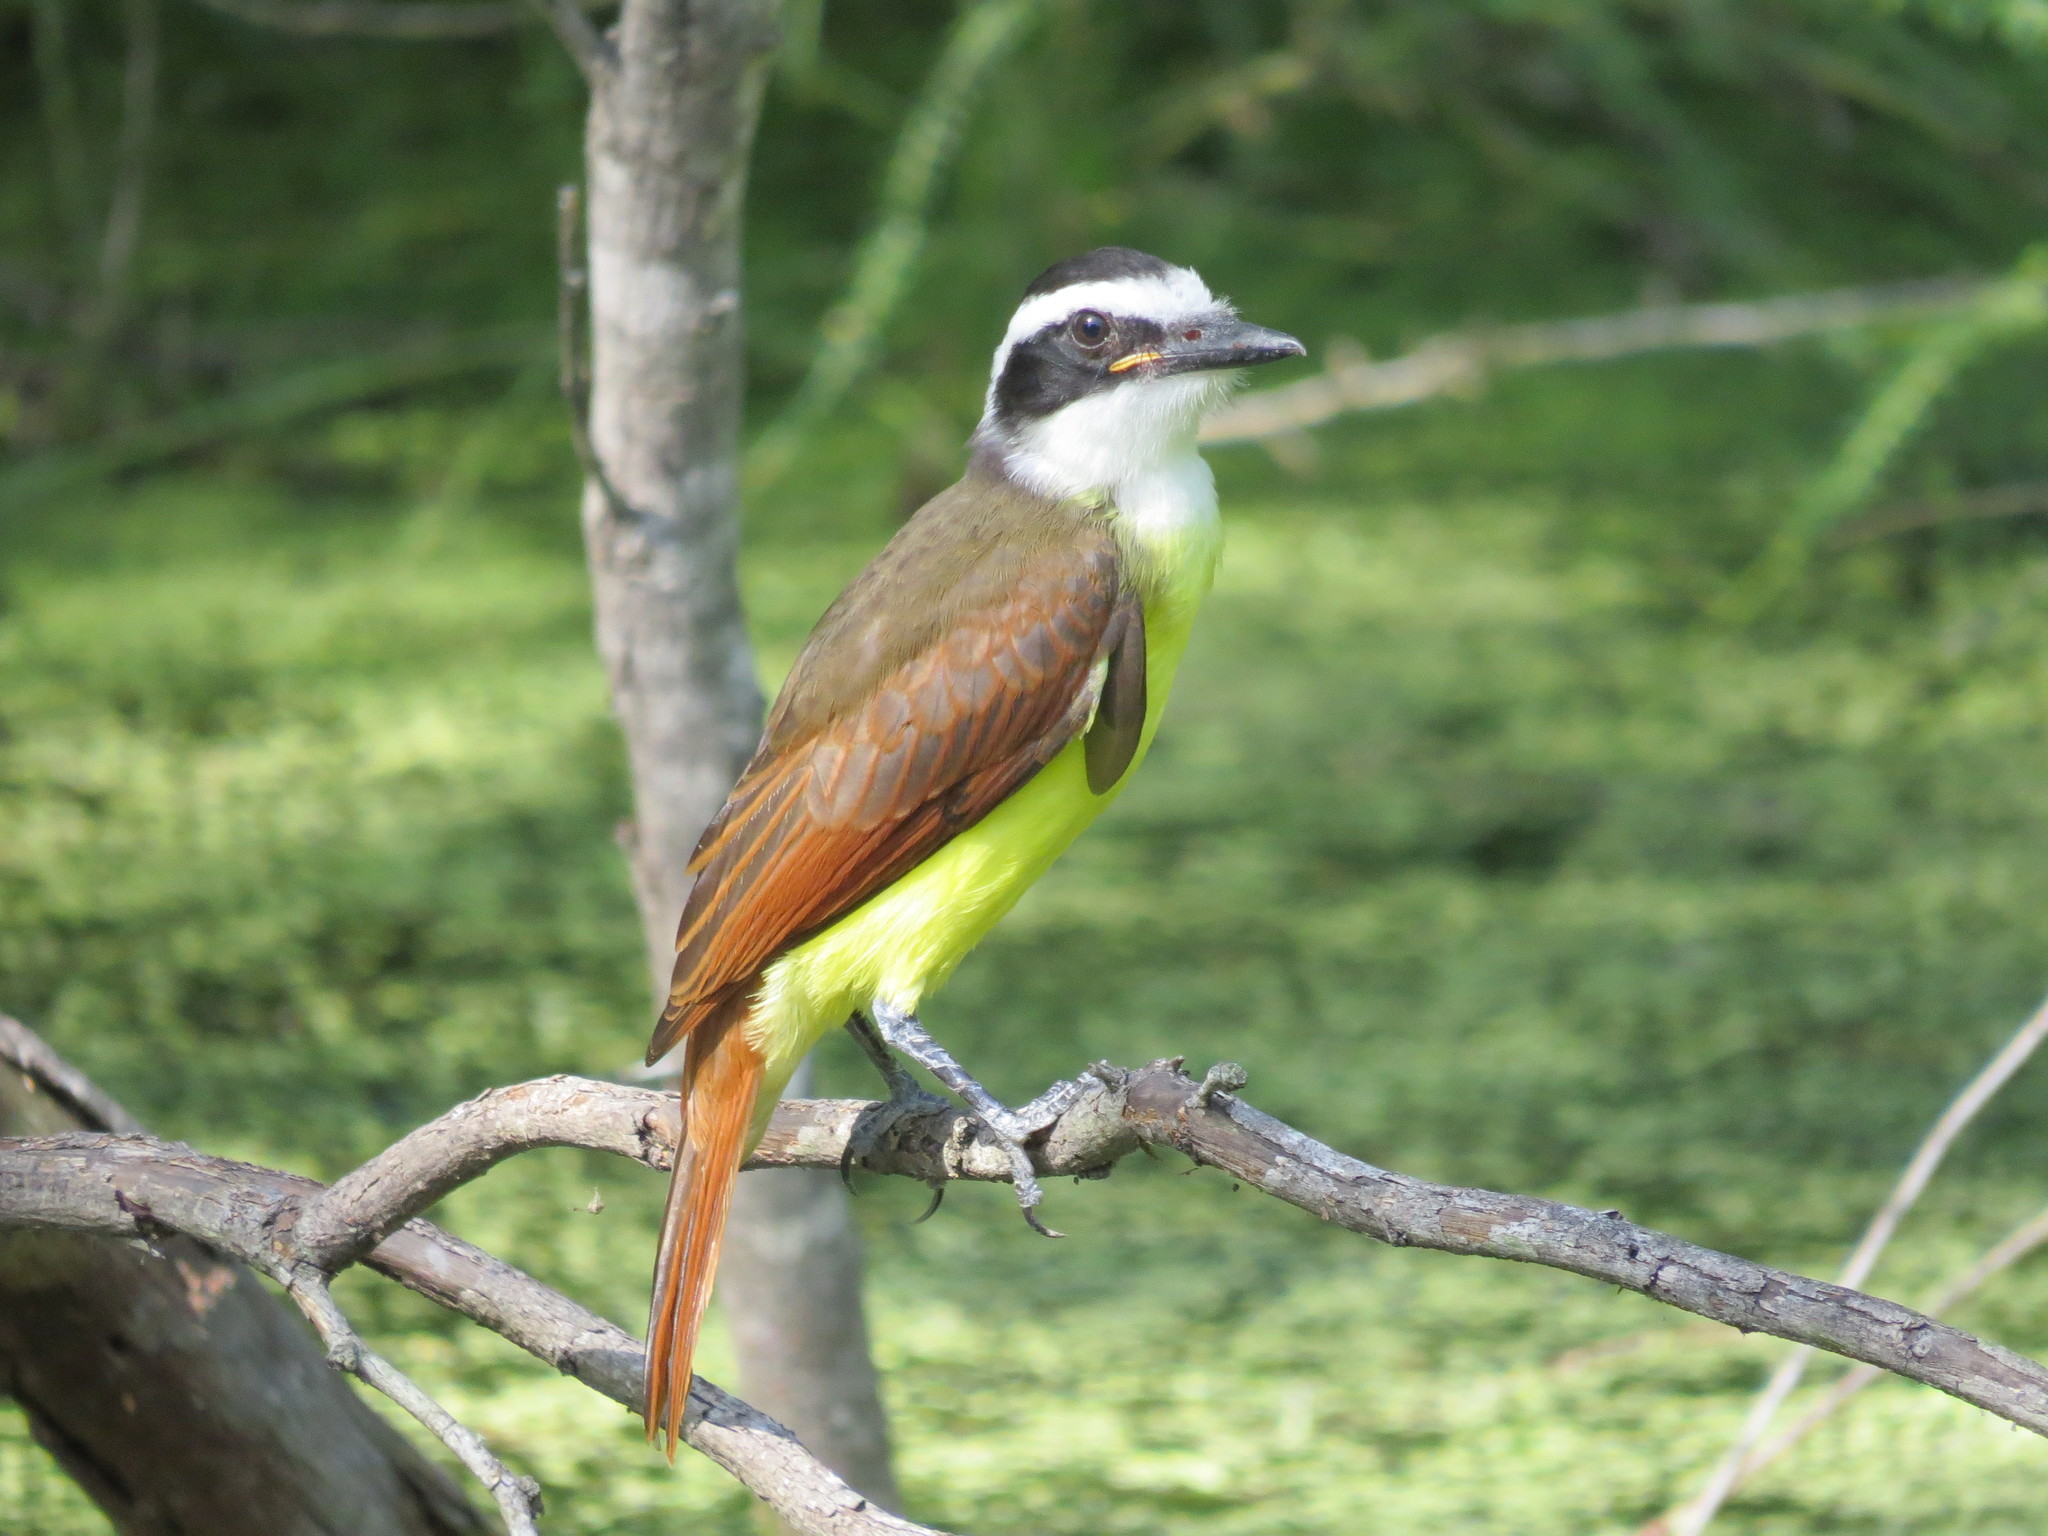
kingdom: Animalia
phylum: Chordata
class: Aves
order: Passeriformes
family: Tyrannidae
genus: Pitangus
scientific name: Pitangus sulphuratus
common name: Great kiskadee
